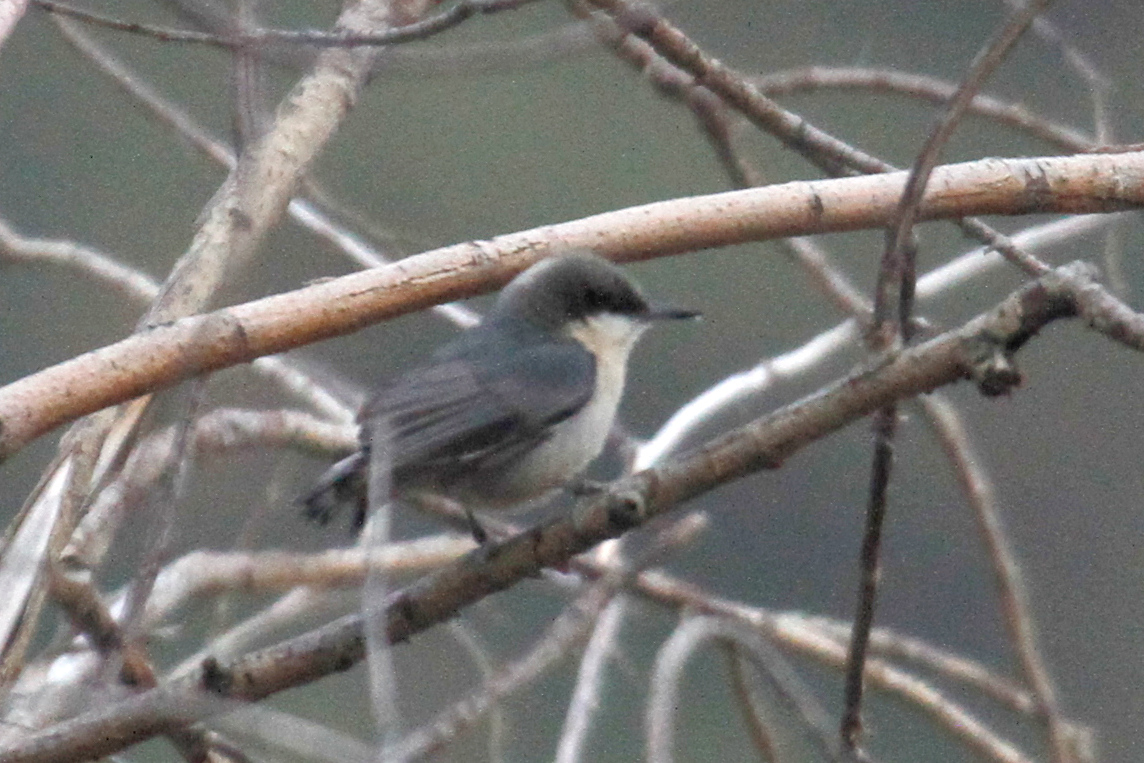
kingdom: Animalia
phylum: Chordata
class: Aves
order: Passeriformes
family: Sittidae
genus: Sitta
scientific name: Sitta pygmaea
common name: Pygmy nuthatch
